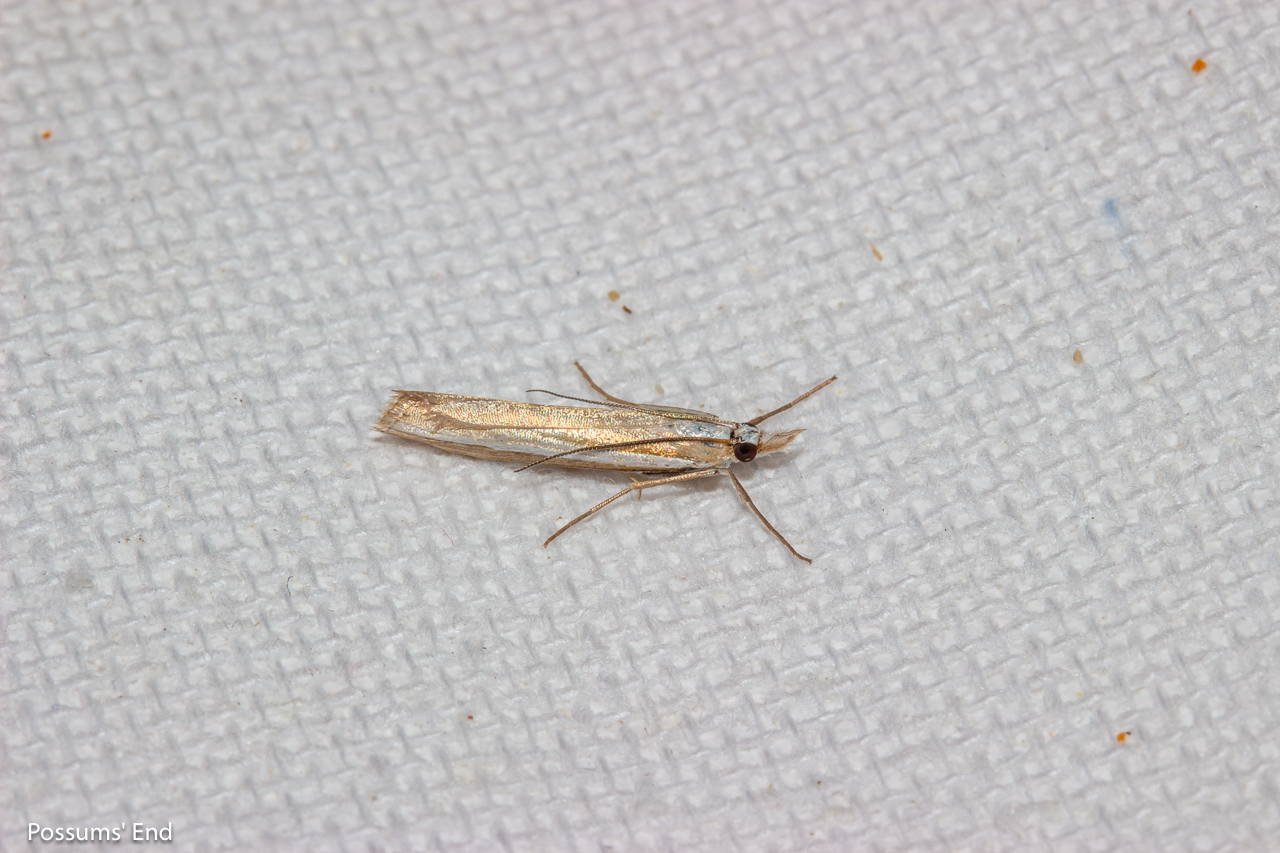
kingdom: Animalia
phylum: Arthropoda
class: Insecta
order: Lepidoptera
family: Crambidae
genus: Orocrambus
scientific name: Orocrambus vittellus
